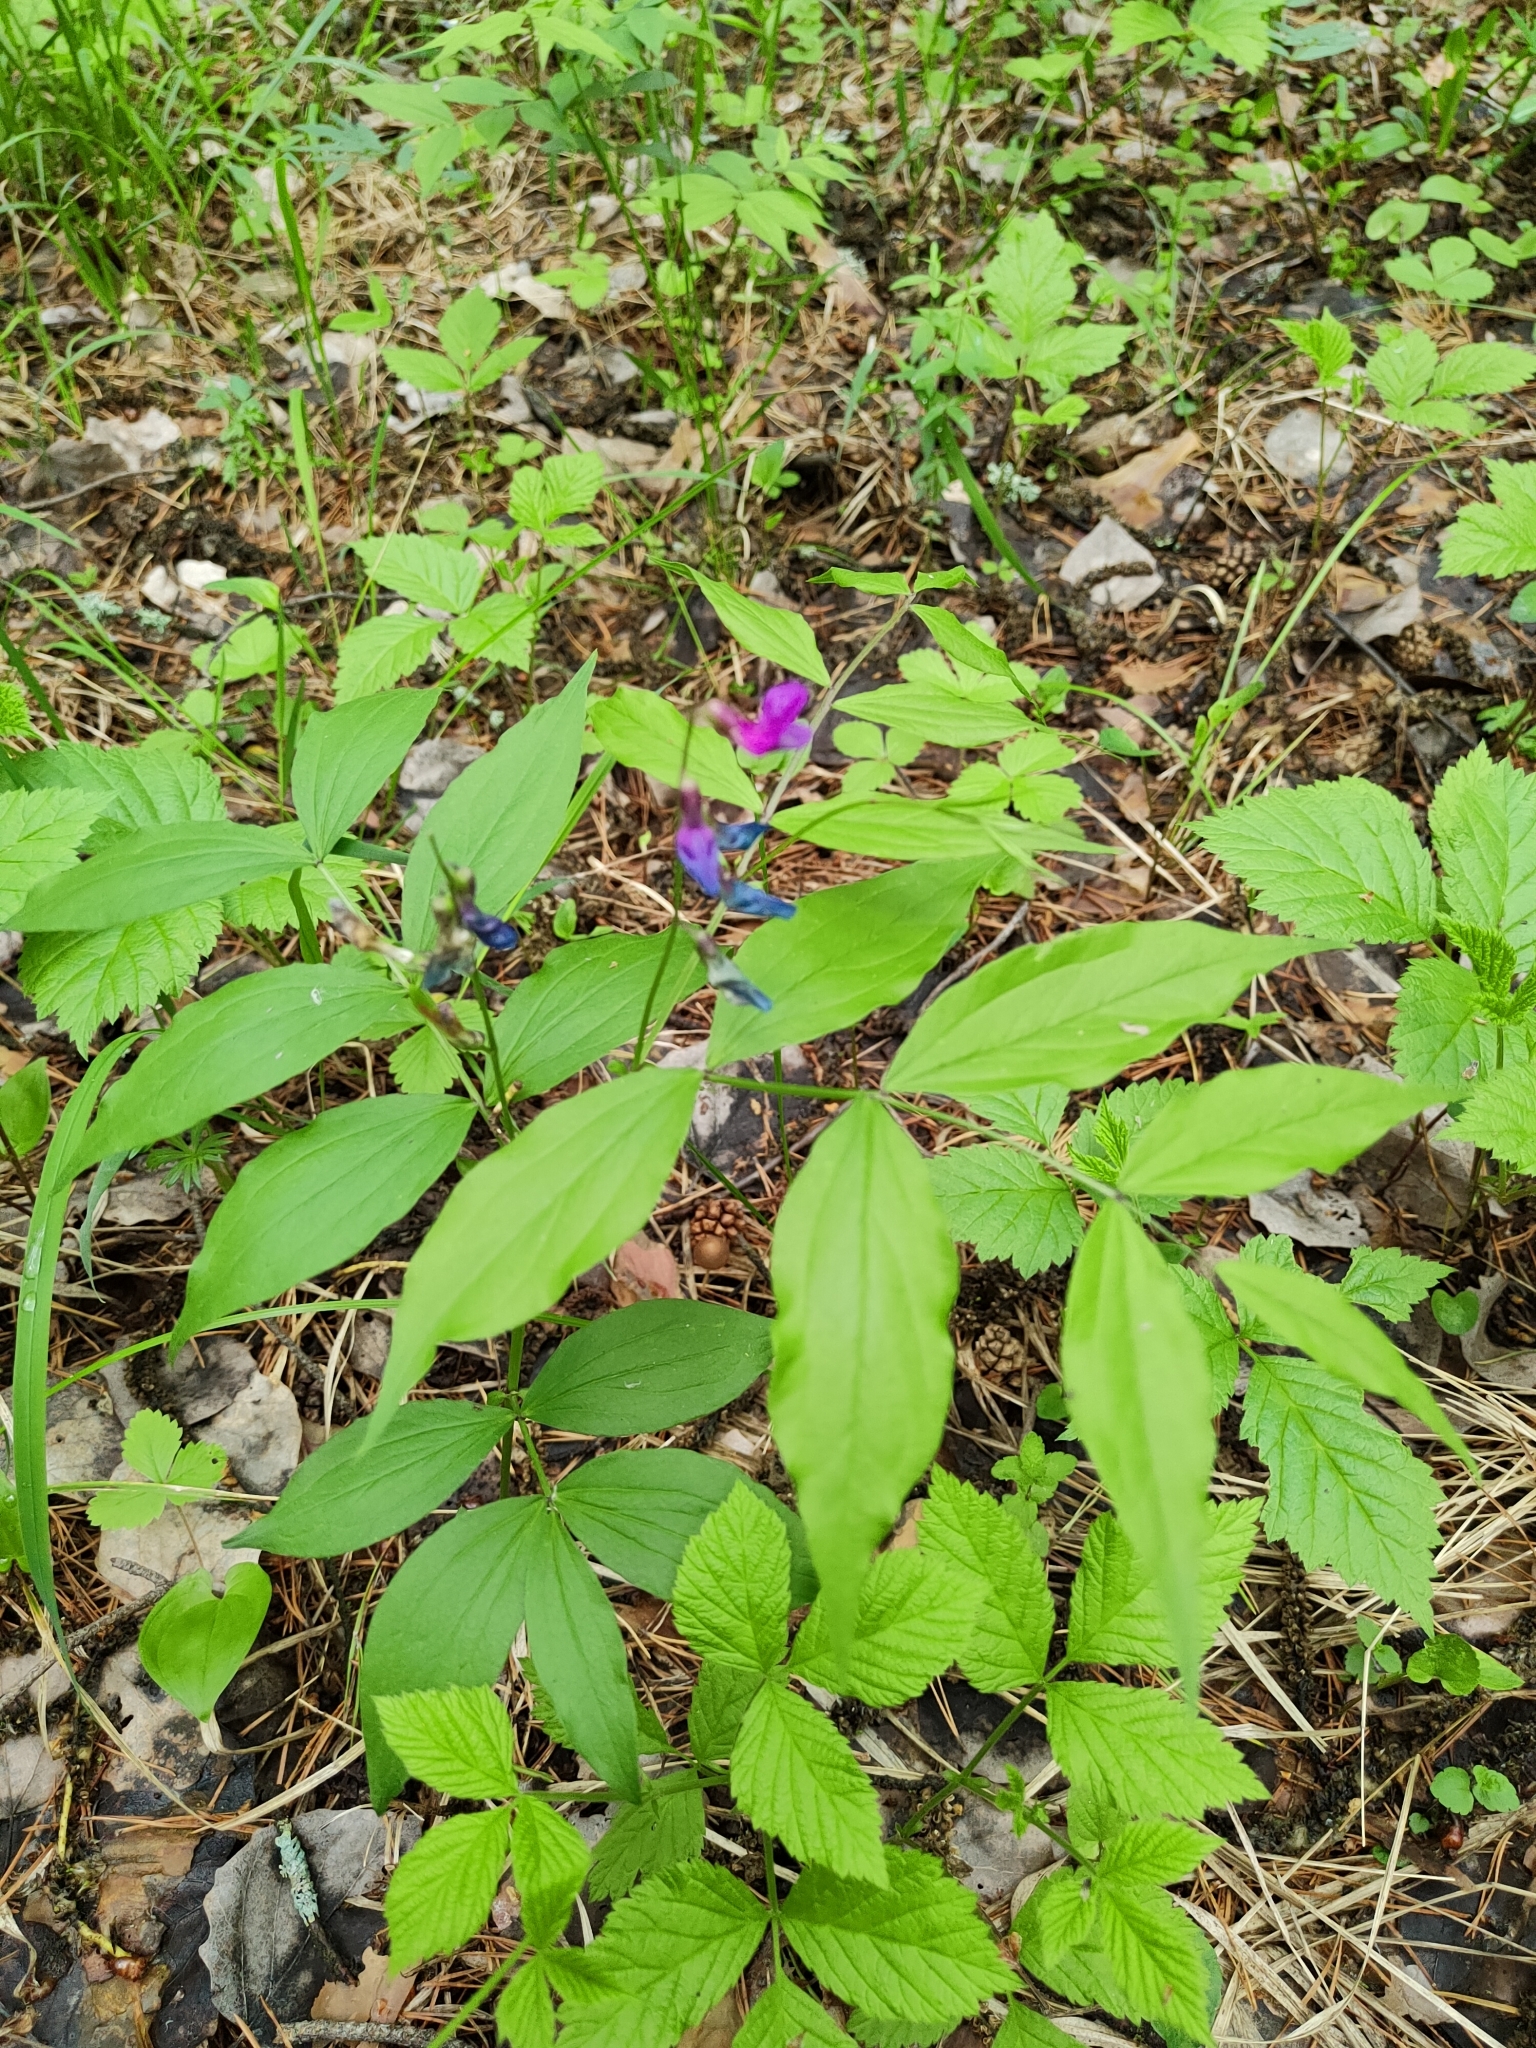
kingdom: Plantae
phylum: Tracheophyta
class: Magnoliopsida
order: Fabales
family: Fabaceae
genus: Lathyrus
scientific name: Lathyrus vernus
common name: Spring pea
